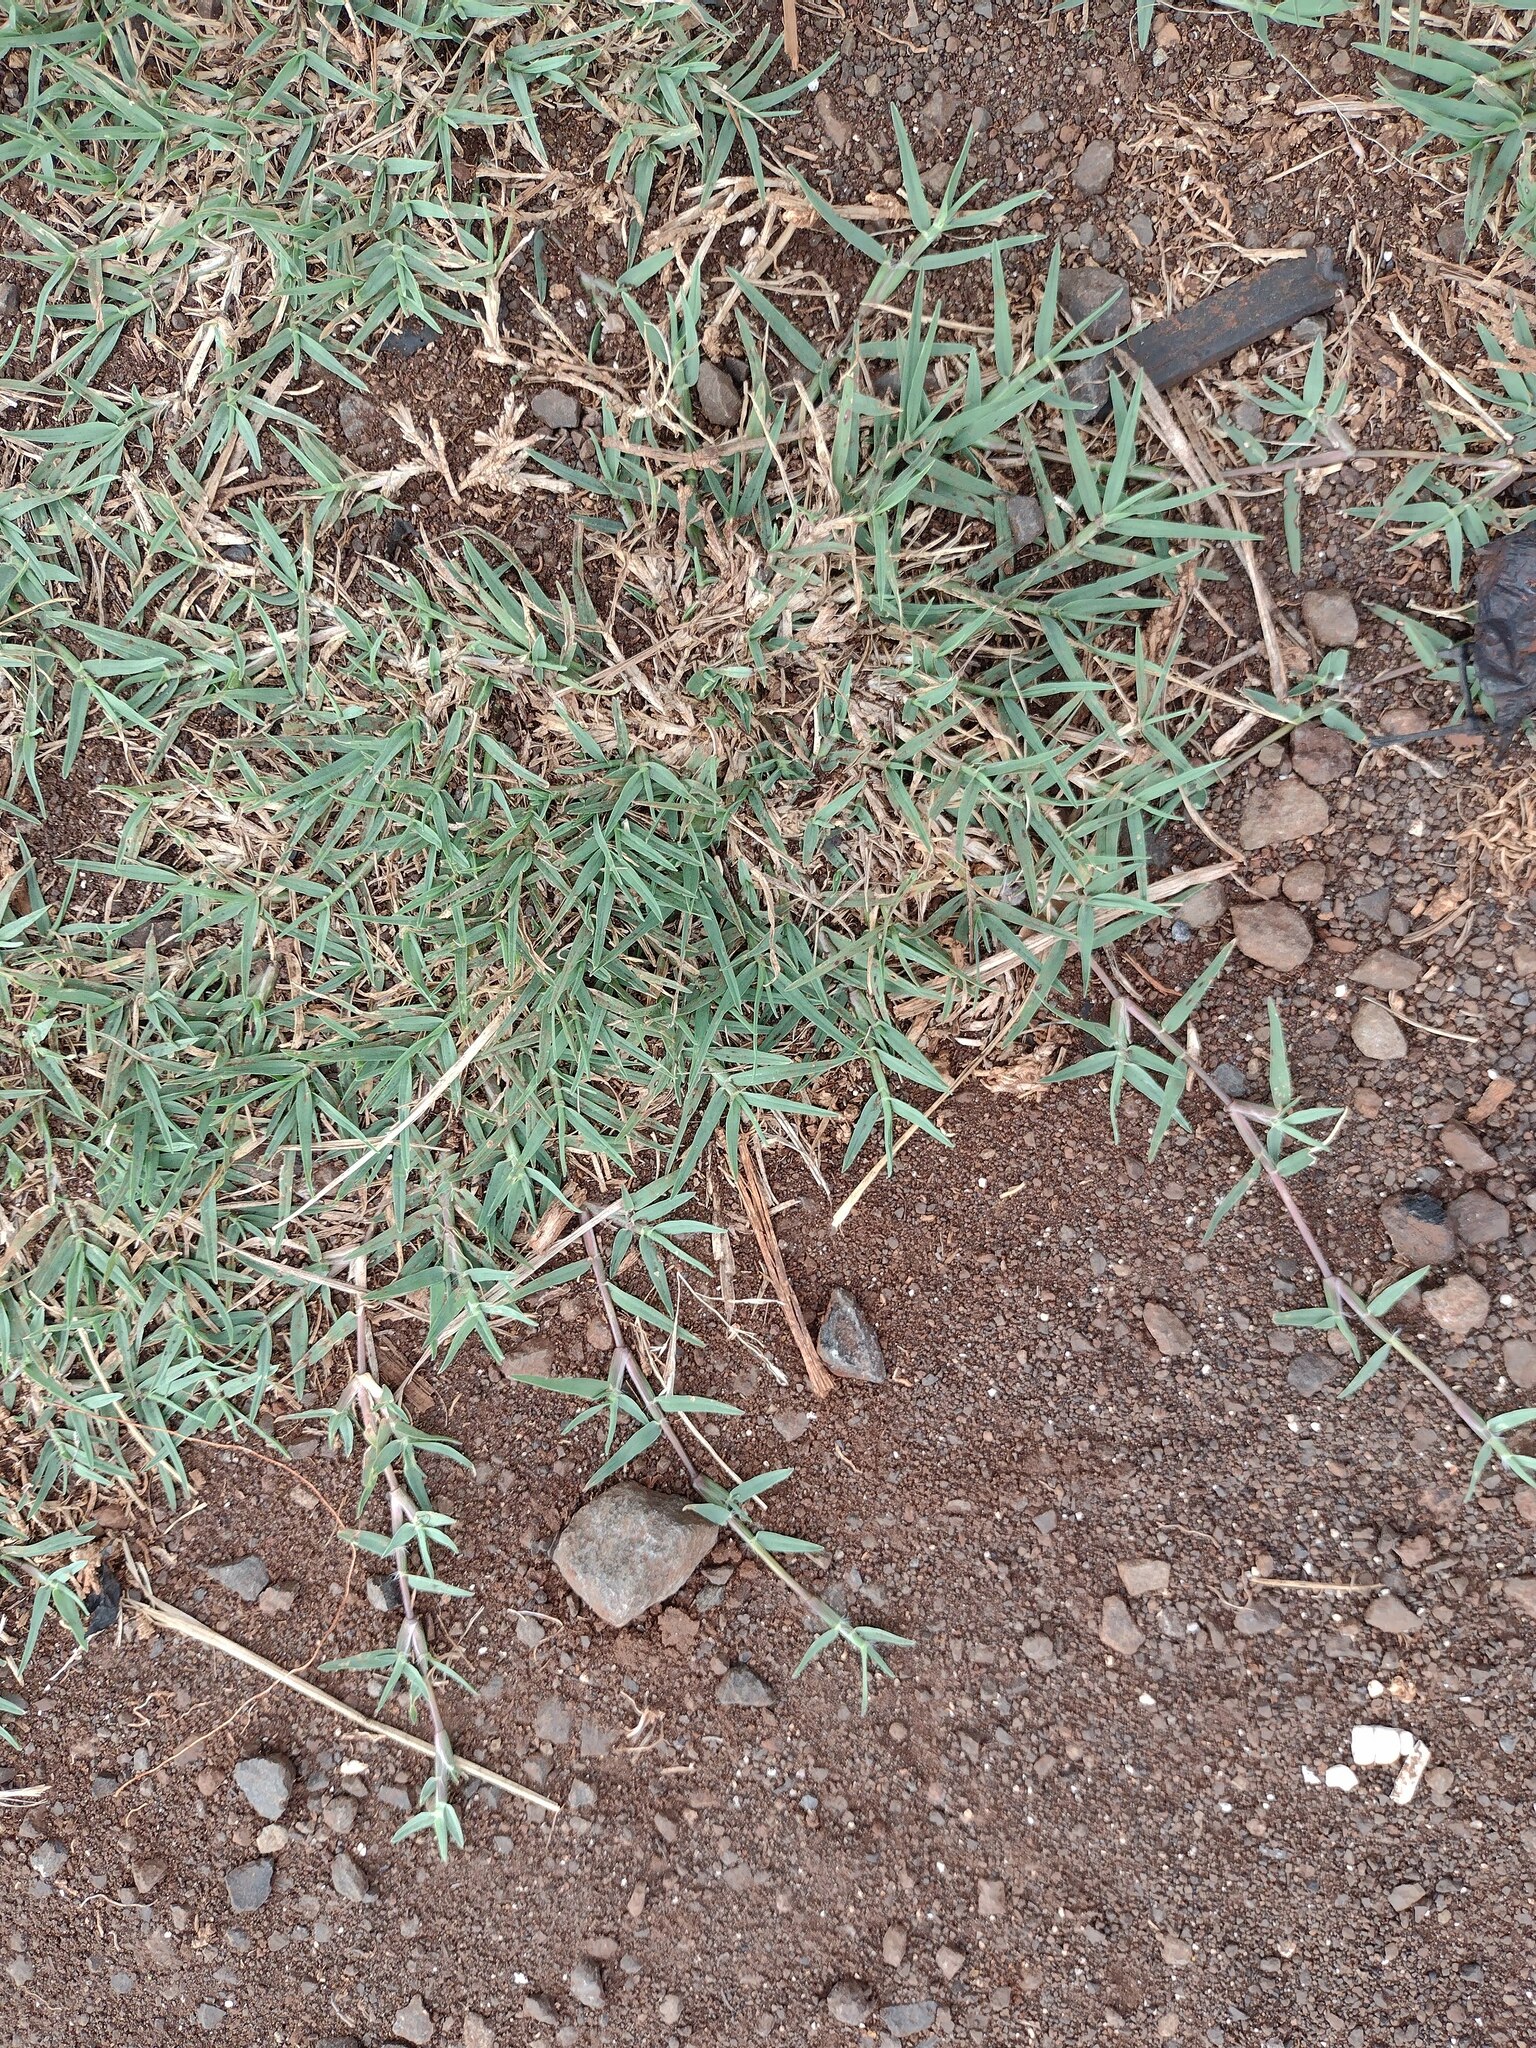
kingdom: Plantae
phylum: Tracheophyta
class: Liliopsida
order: Poales
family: Poaceae
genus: Cynodon
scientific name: Cynodon dactylon
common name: Bermuda grass
